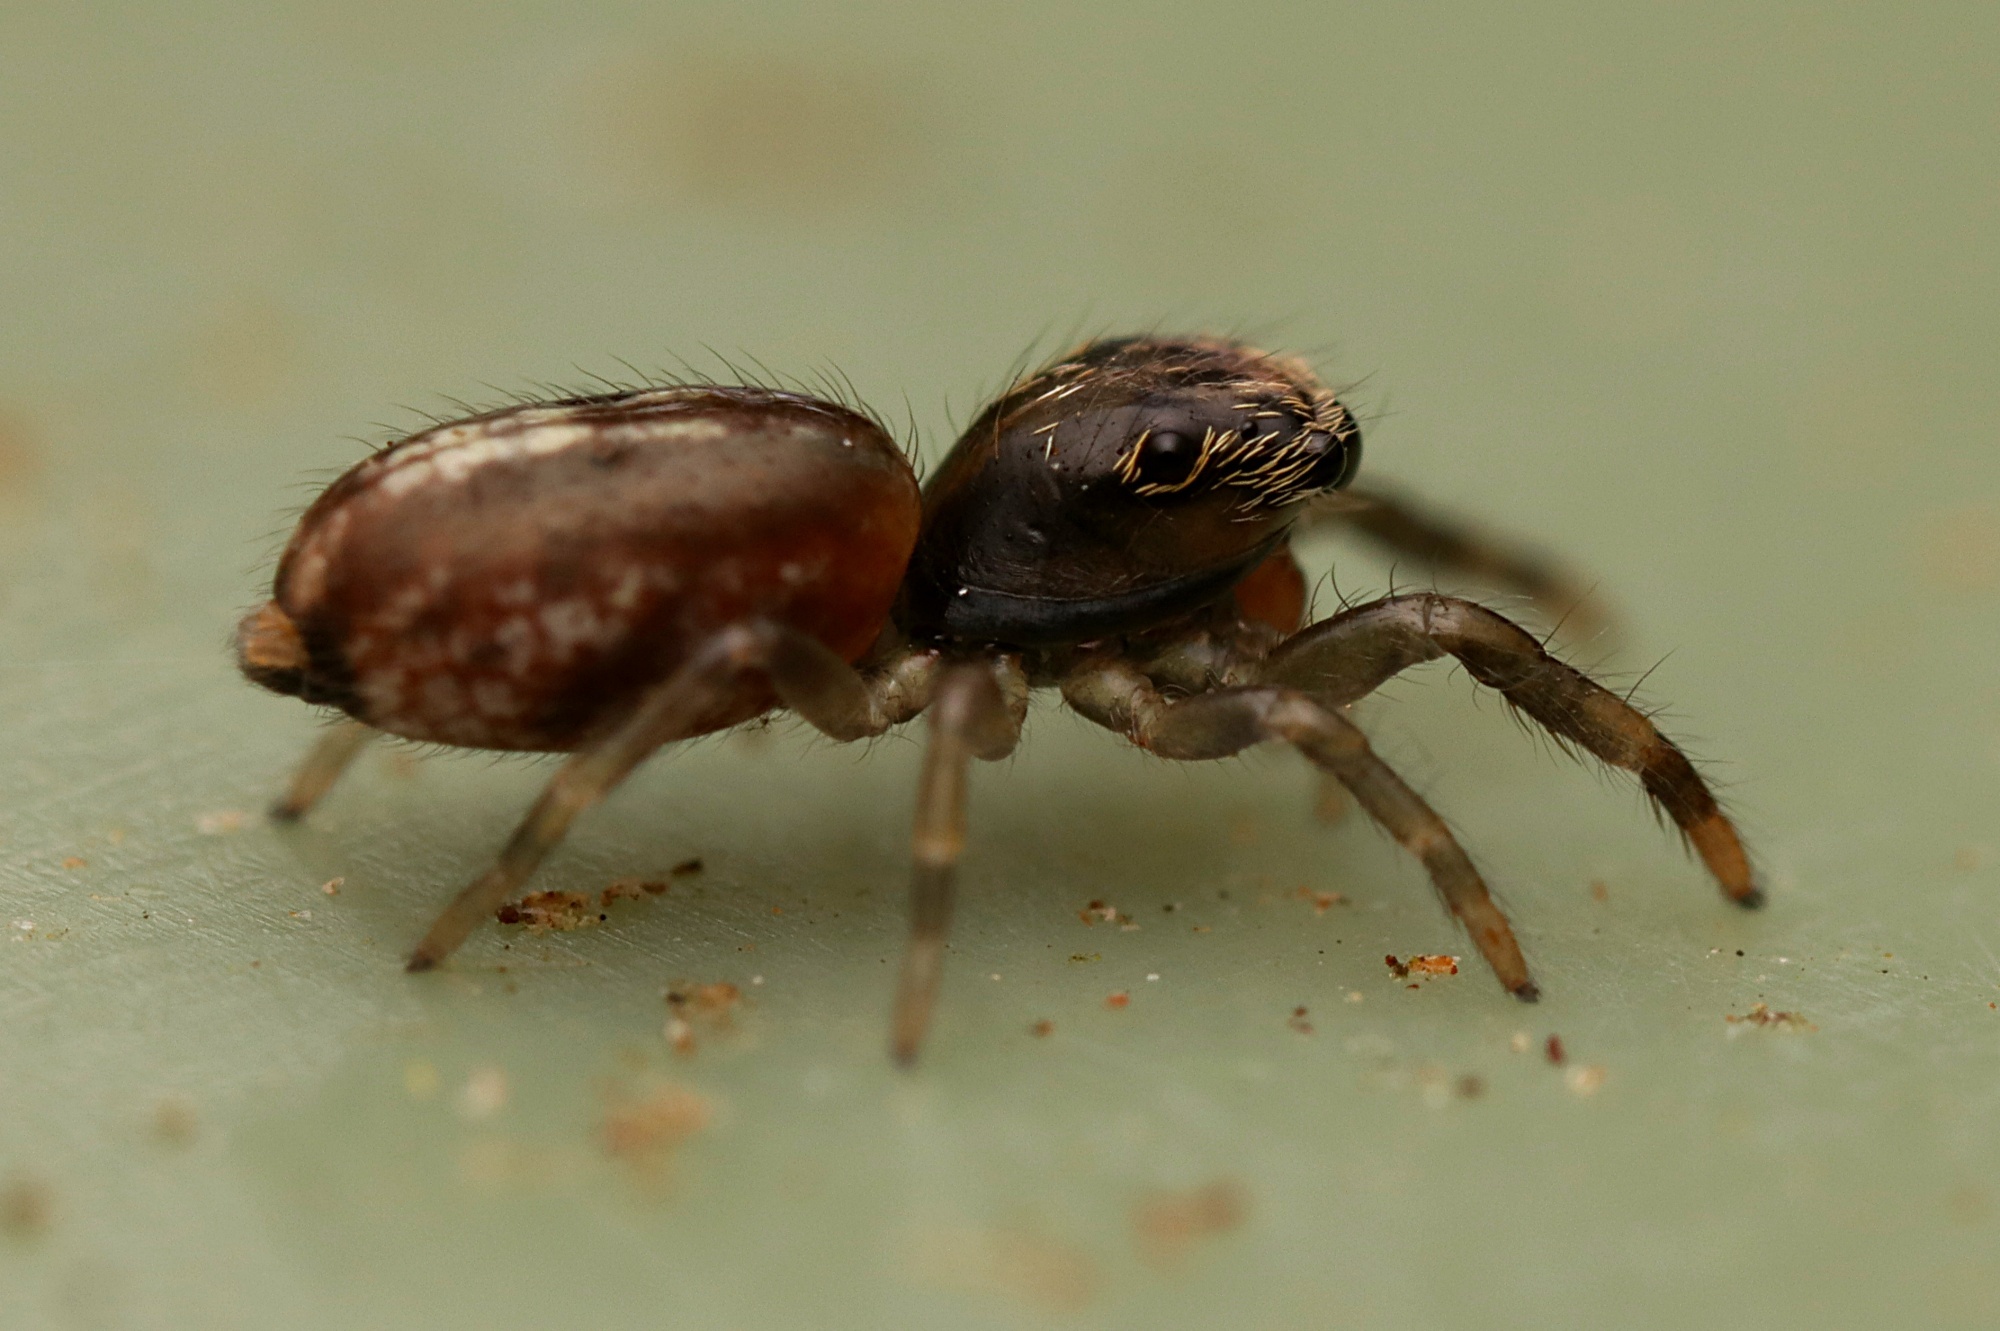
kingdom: Animalia
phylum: Arthropoda
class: Arachnida
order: Araneae
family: Salticidae
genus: Trite
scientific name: Trite planiceps
